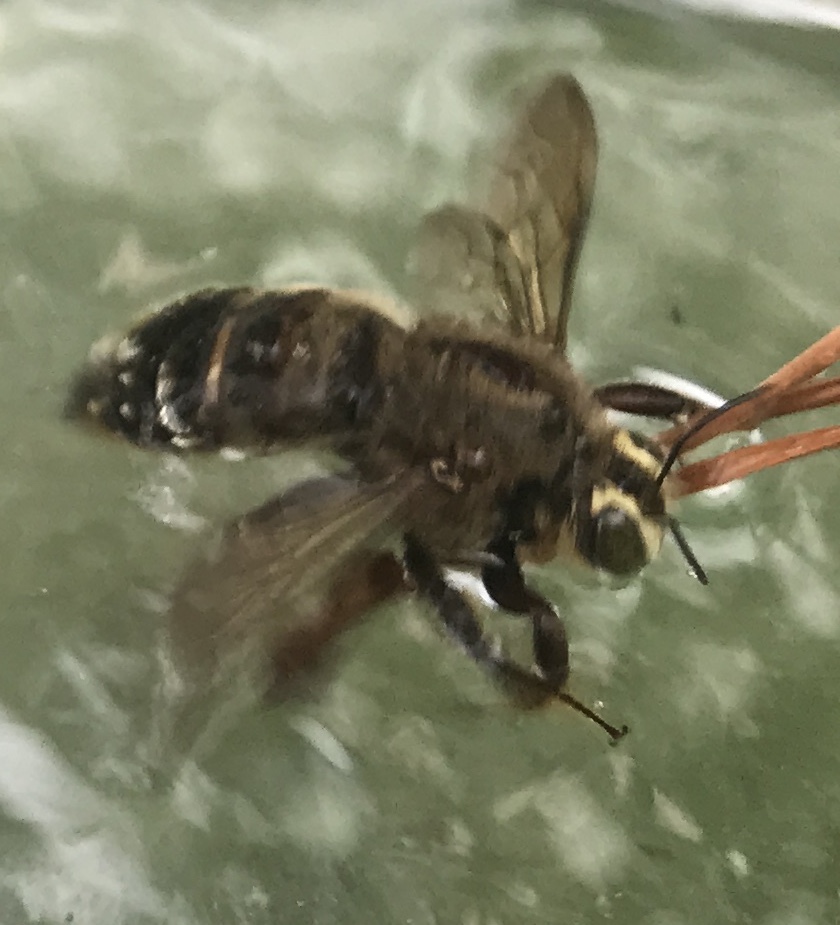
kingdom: Animalia
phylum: Arthropoda
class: Insecta
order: Hymenoptera
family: Apidae
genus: Xylocopa
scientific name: Xylocopa strandi
